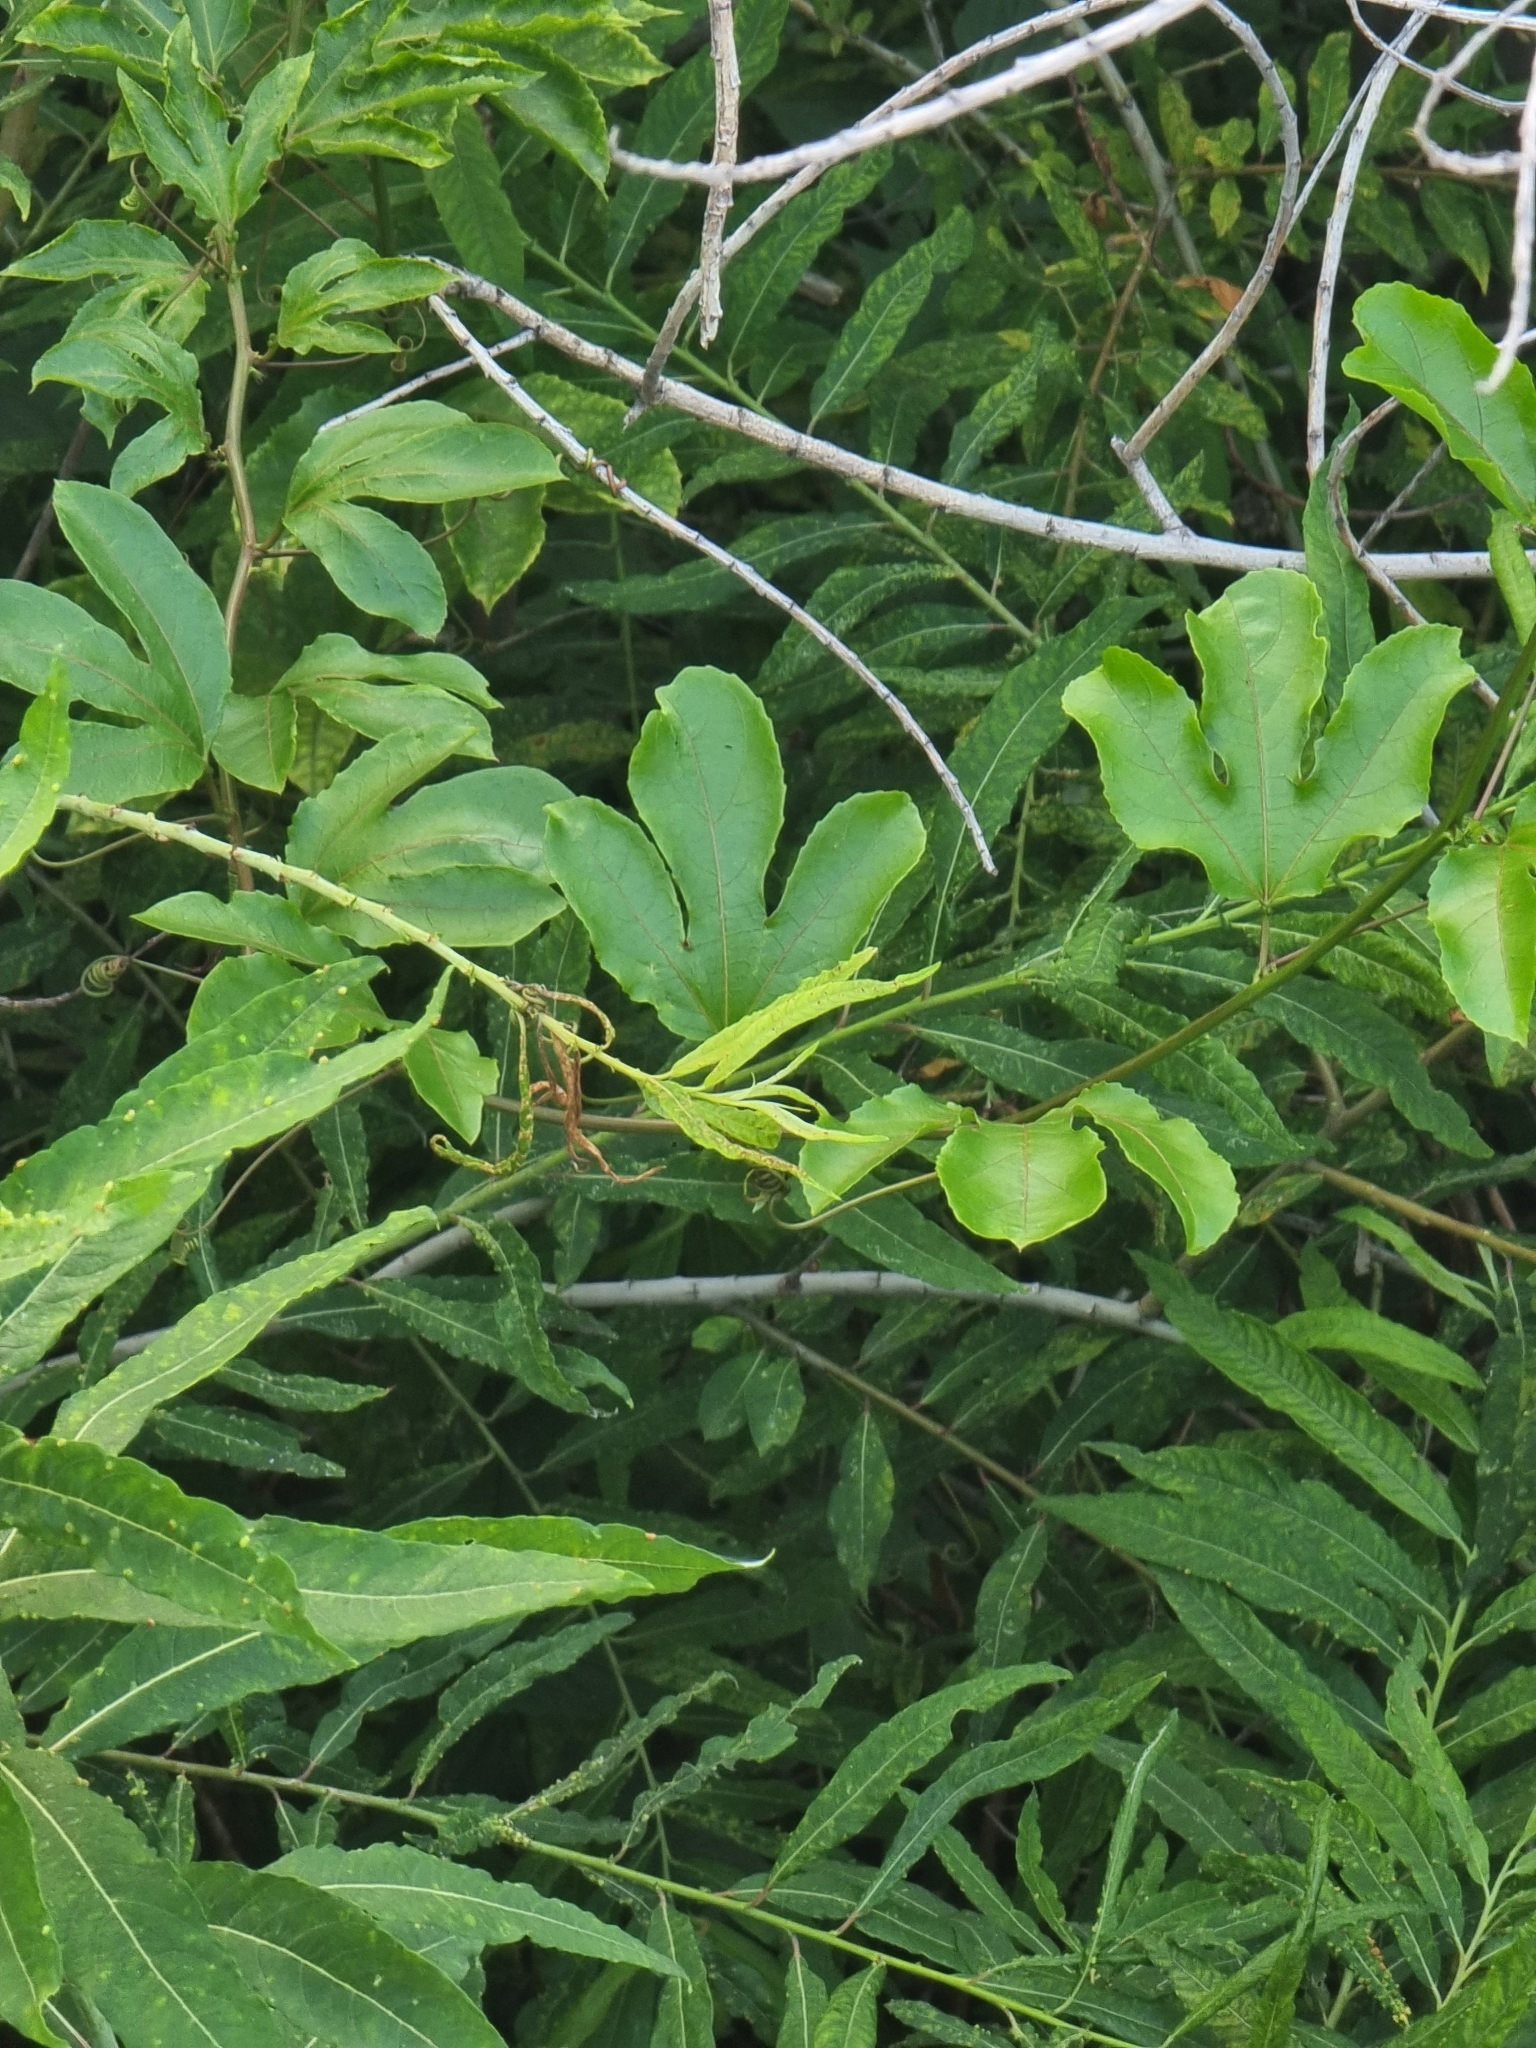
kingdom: Plantae
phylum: Tracheophyta
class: Magnoliopsida
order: Malpighiales
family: Passifloraceae
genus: Passiflora
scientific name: Passiflora edulis
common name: Purple granadilla
